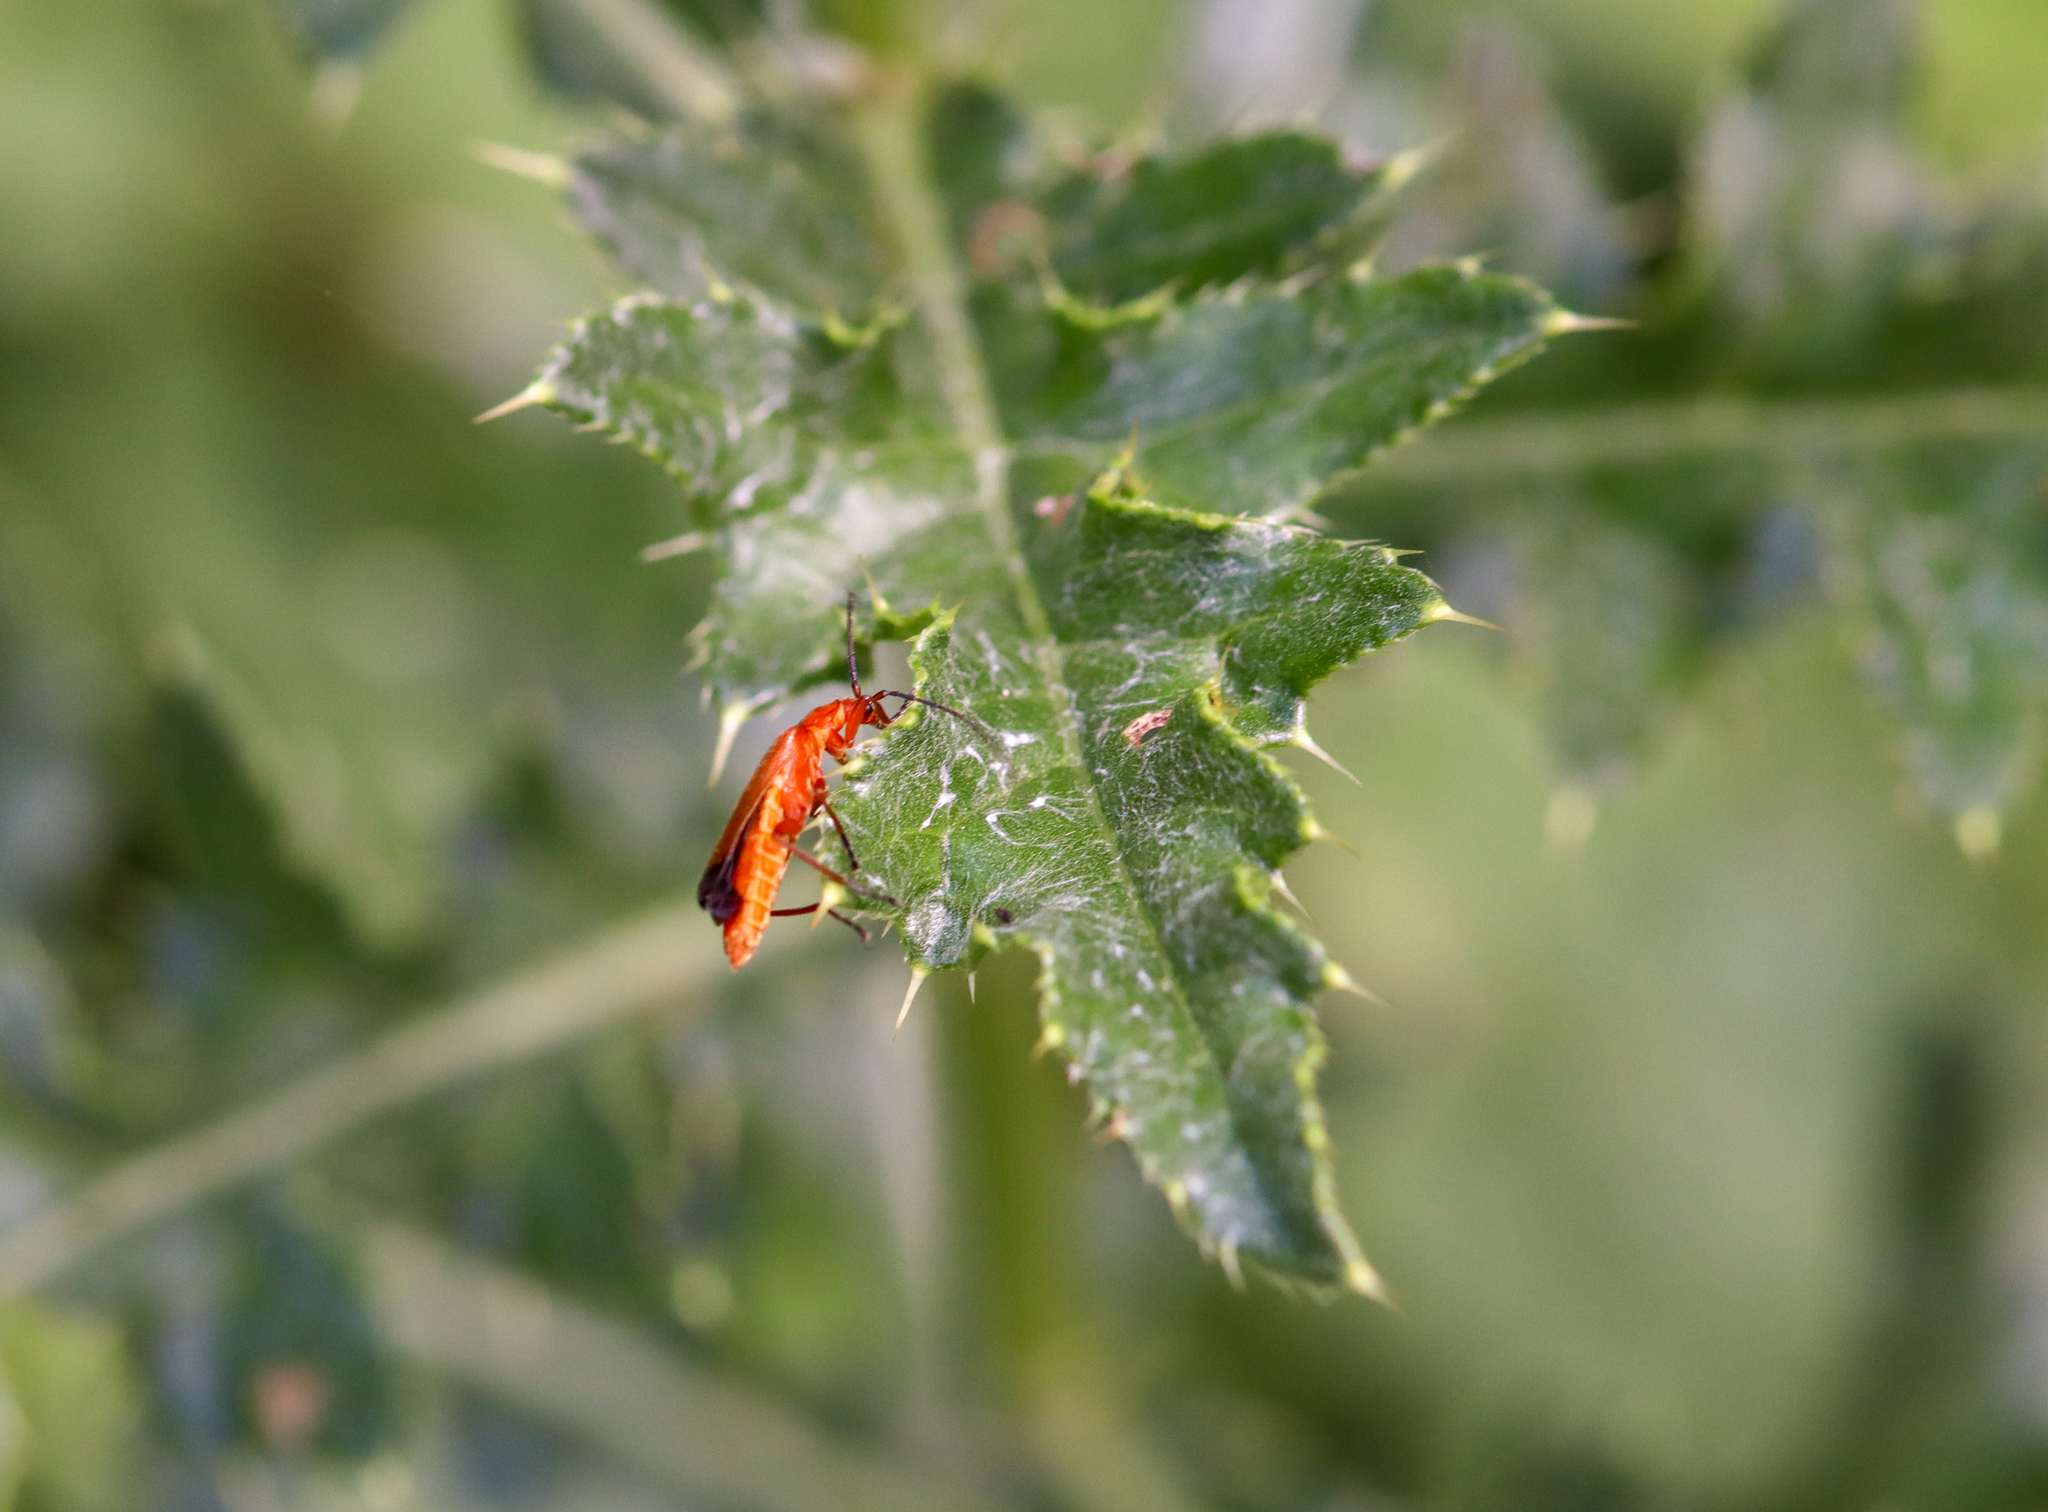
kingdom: Animalia
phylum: Arthropoda
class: Insecta
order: Coleoptera
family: Cantharidae
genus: Rhagonycha
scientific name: Rhagonycha fulva
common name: Common red soldier beetle
